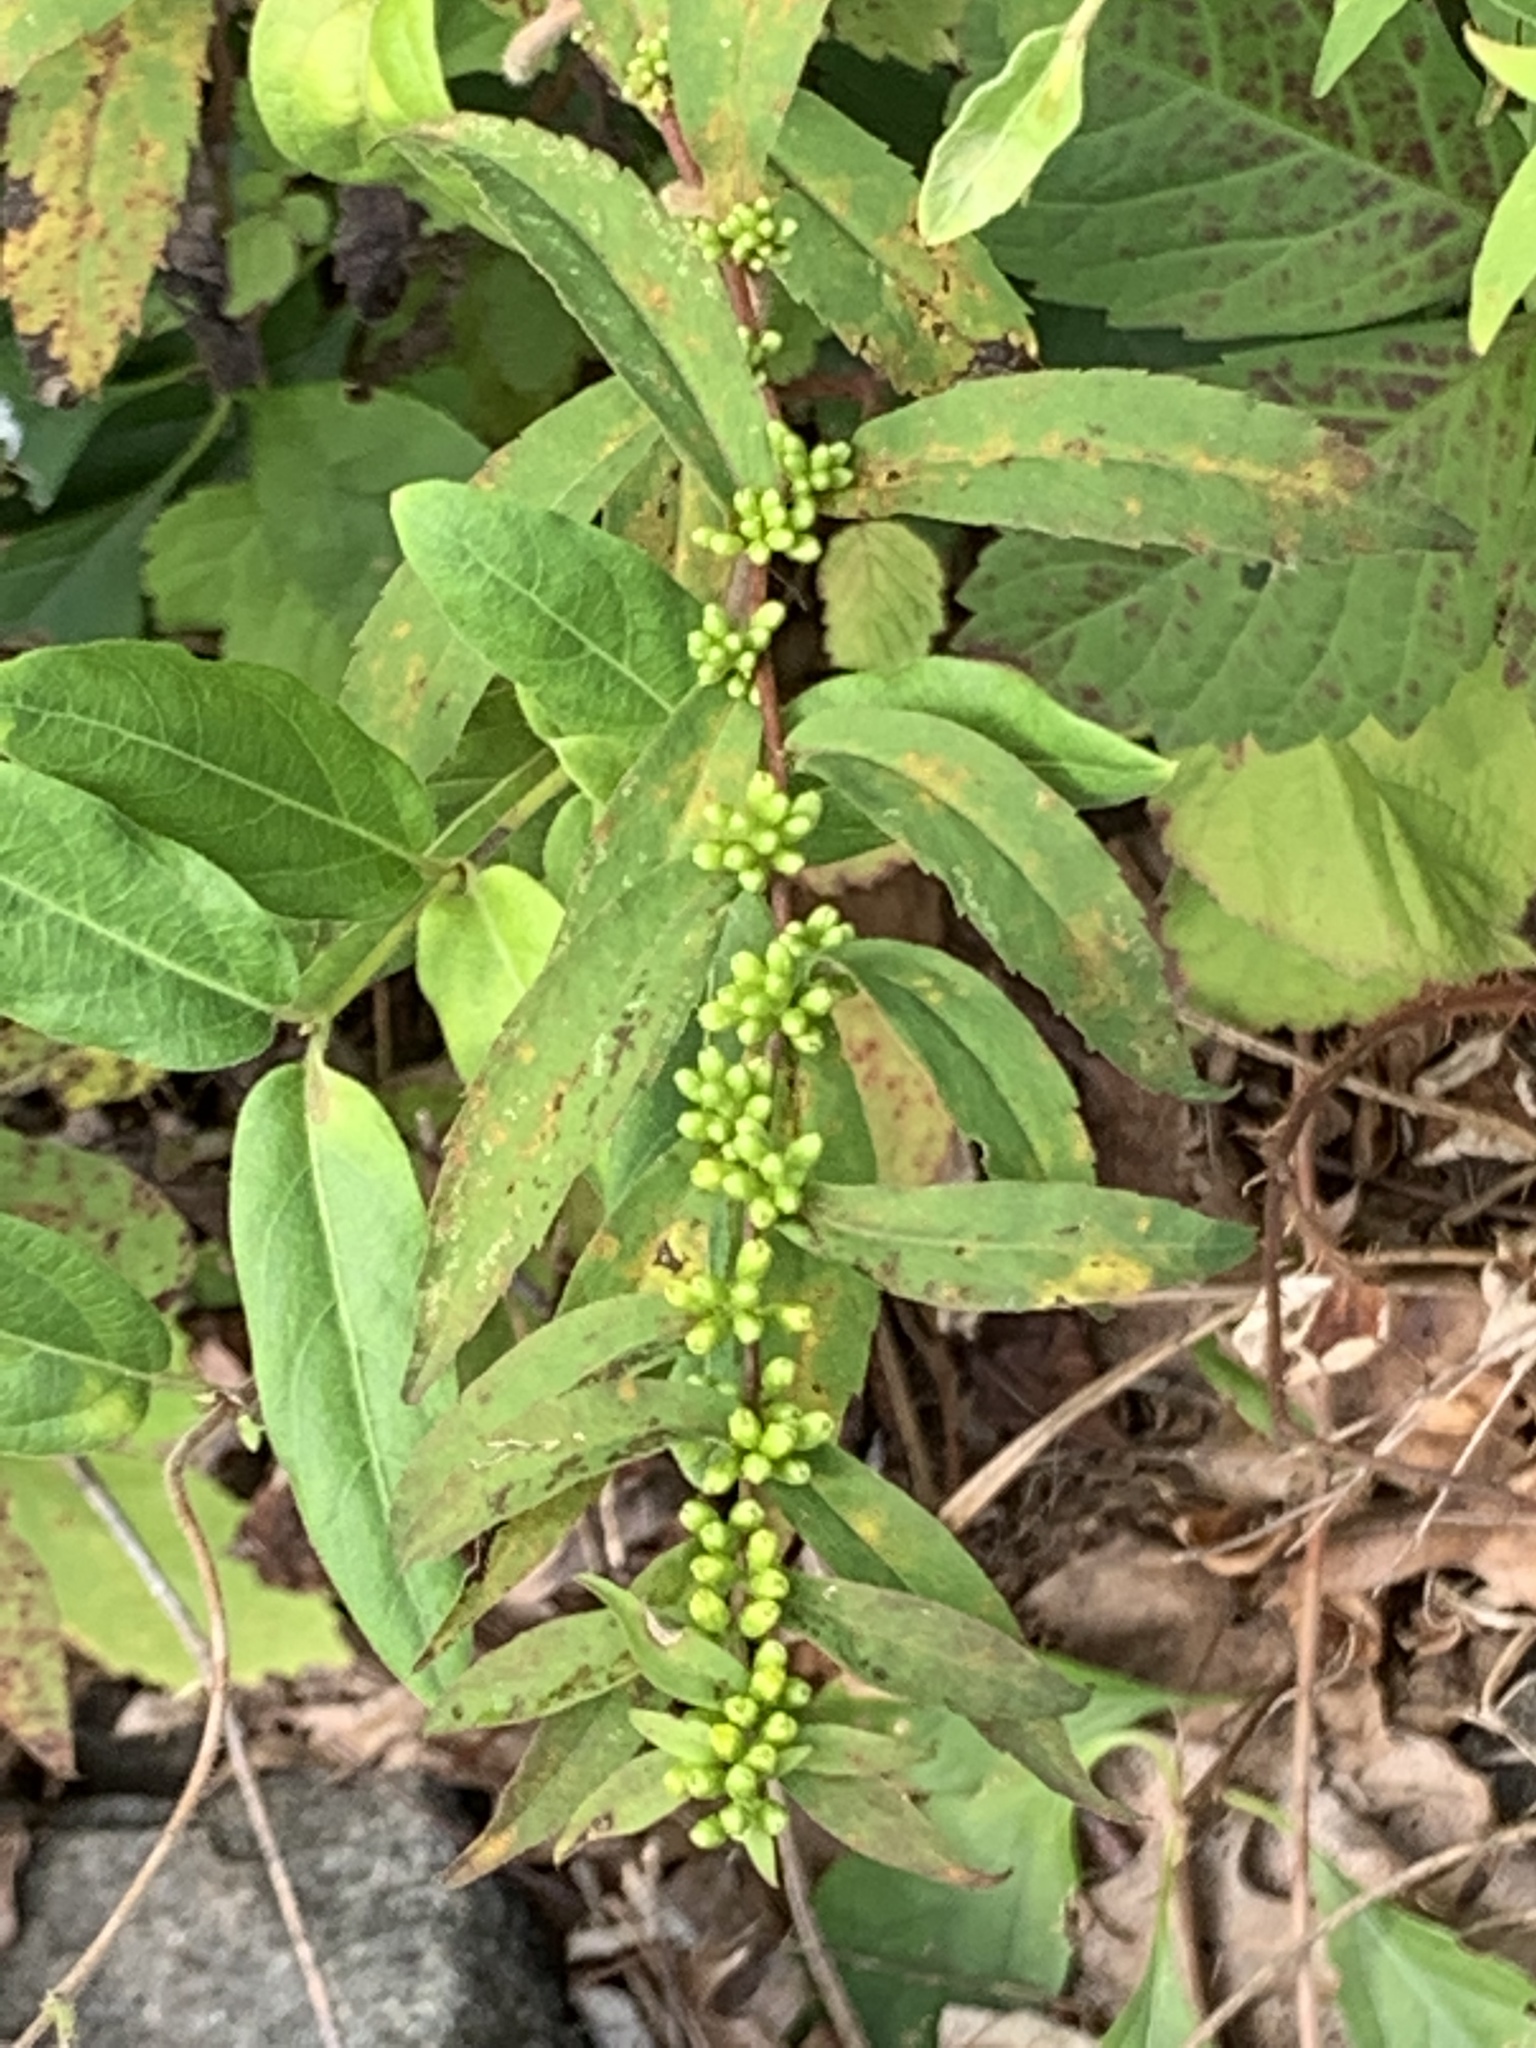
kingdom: Plantae
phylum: Tracheophyta
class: Magnoliopsida
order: Asterales
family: Asteraceae
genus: Solidago
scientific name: Solidago caesia
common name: Woodland goldenrod
